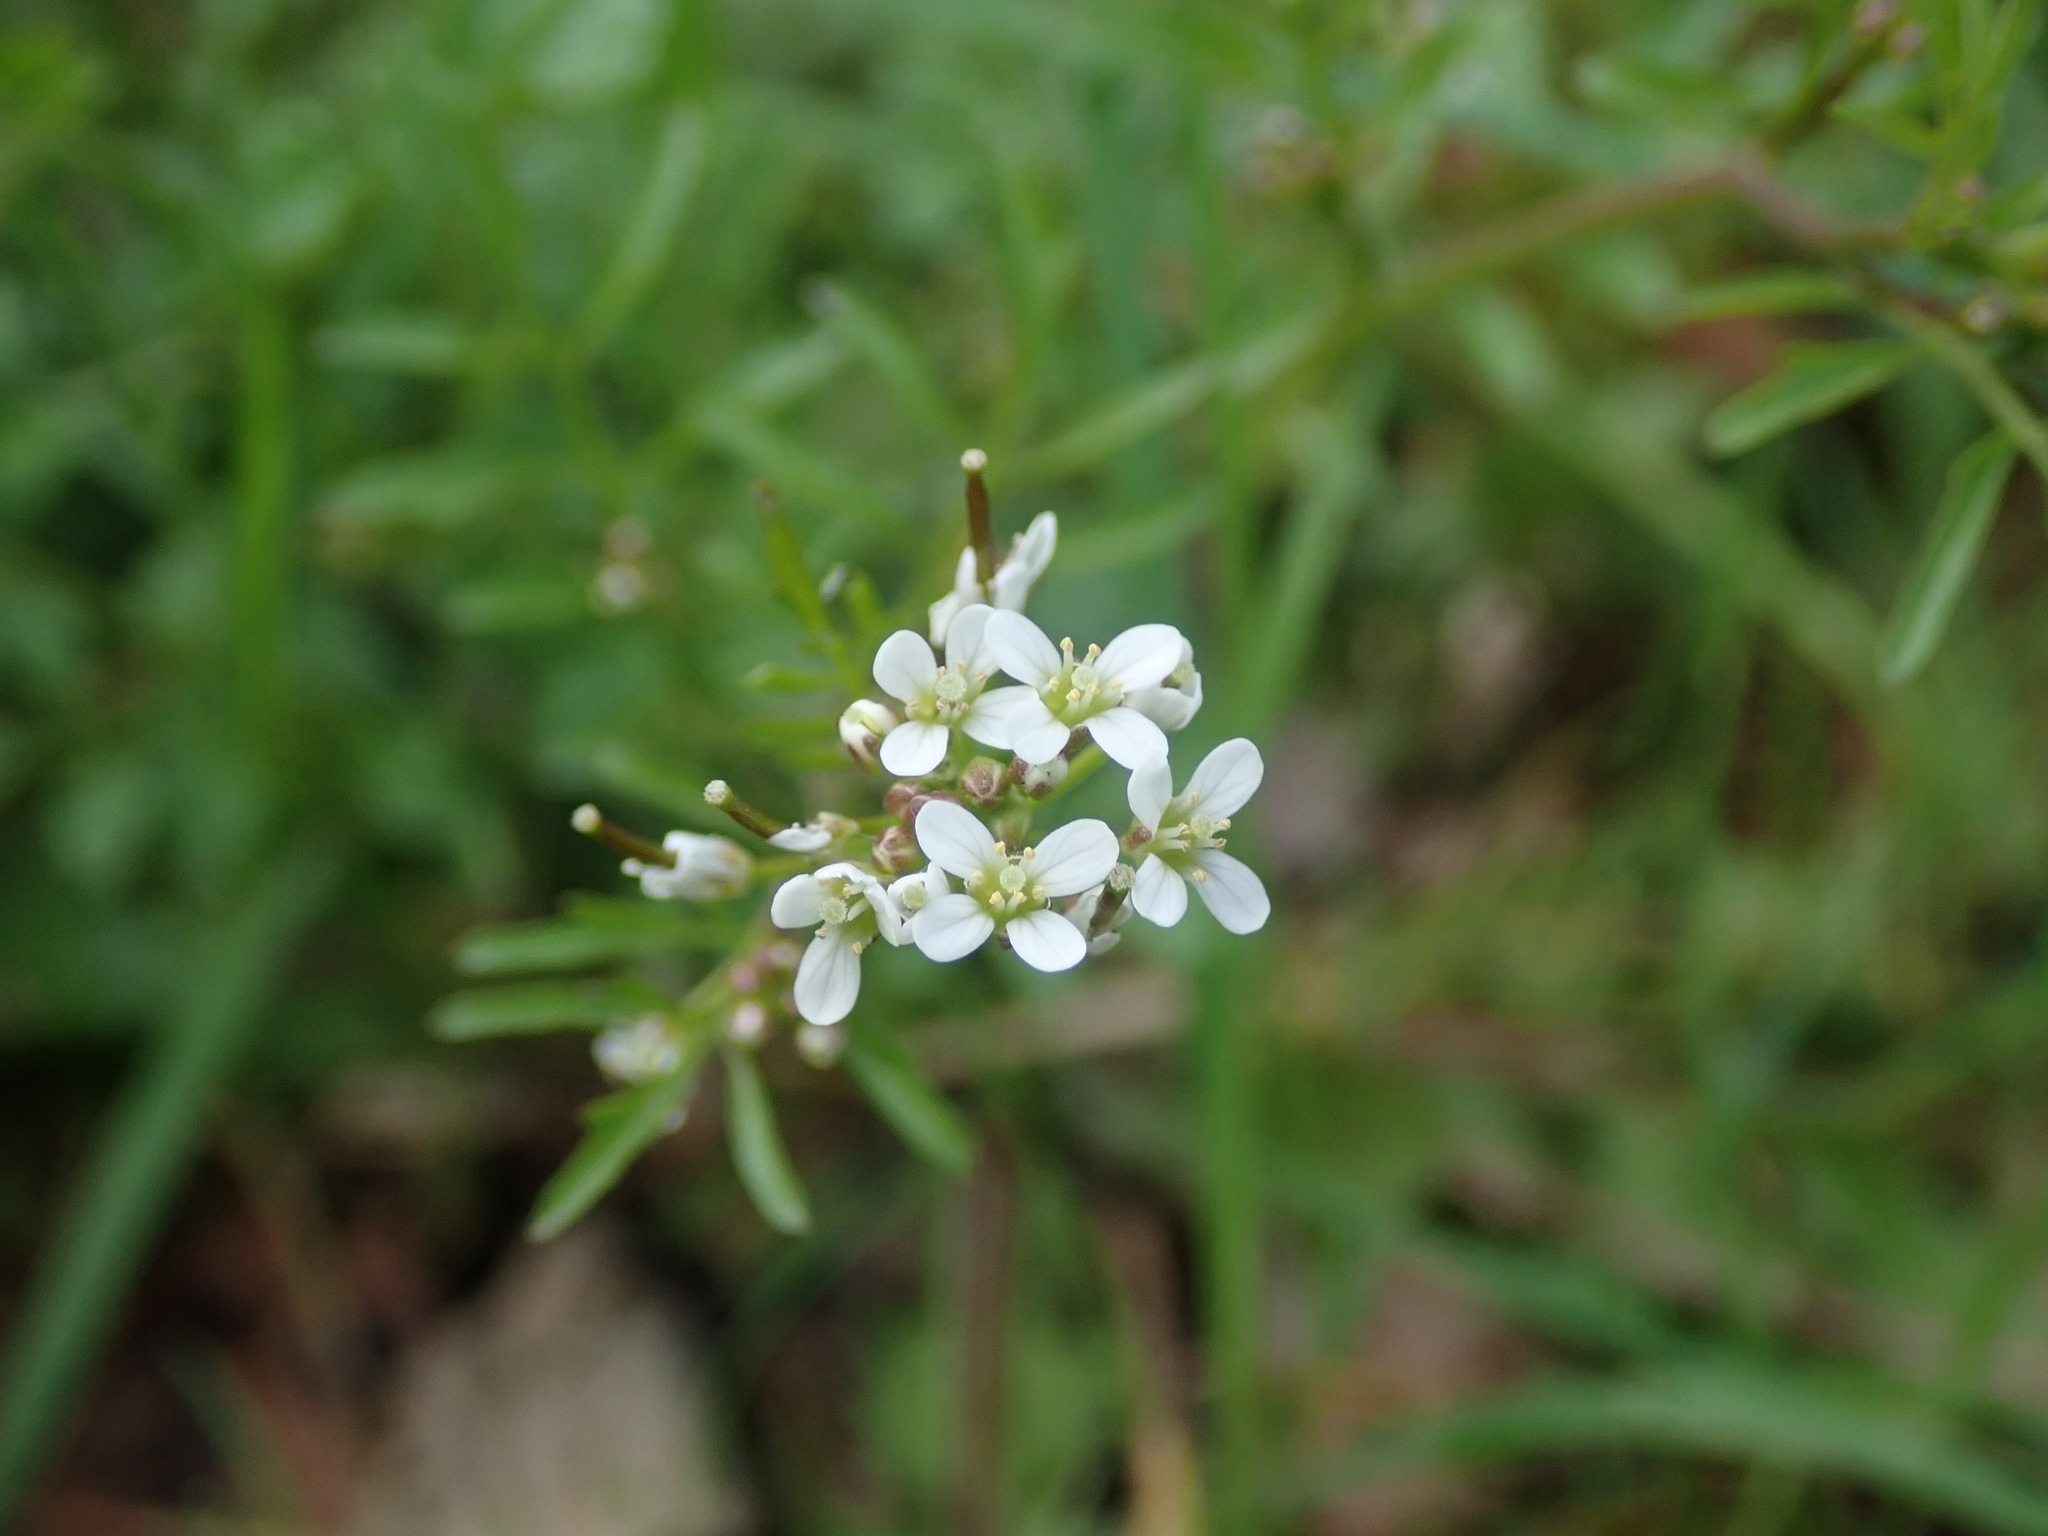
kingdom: Plantae
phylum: Tracheophyta
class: Magnoliopsida
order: Brassicales
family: Brassicaceae
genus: Cardamine
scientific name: Cardamine flexuosa
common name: Woodland bittercress
